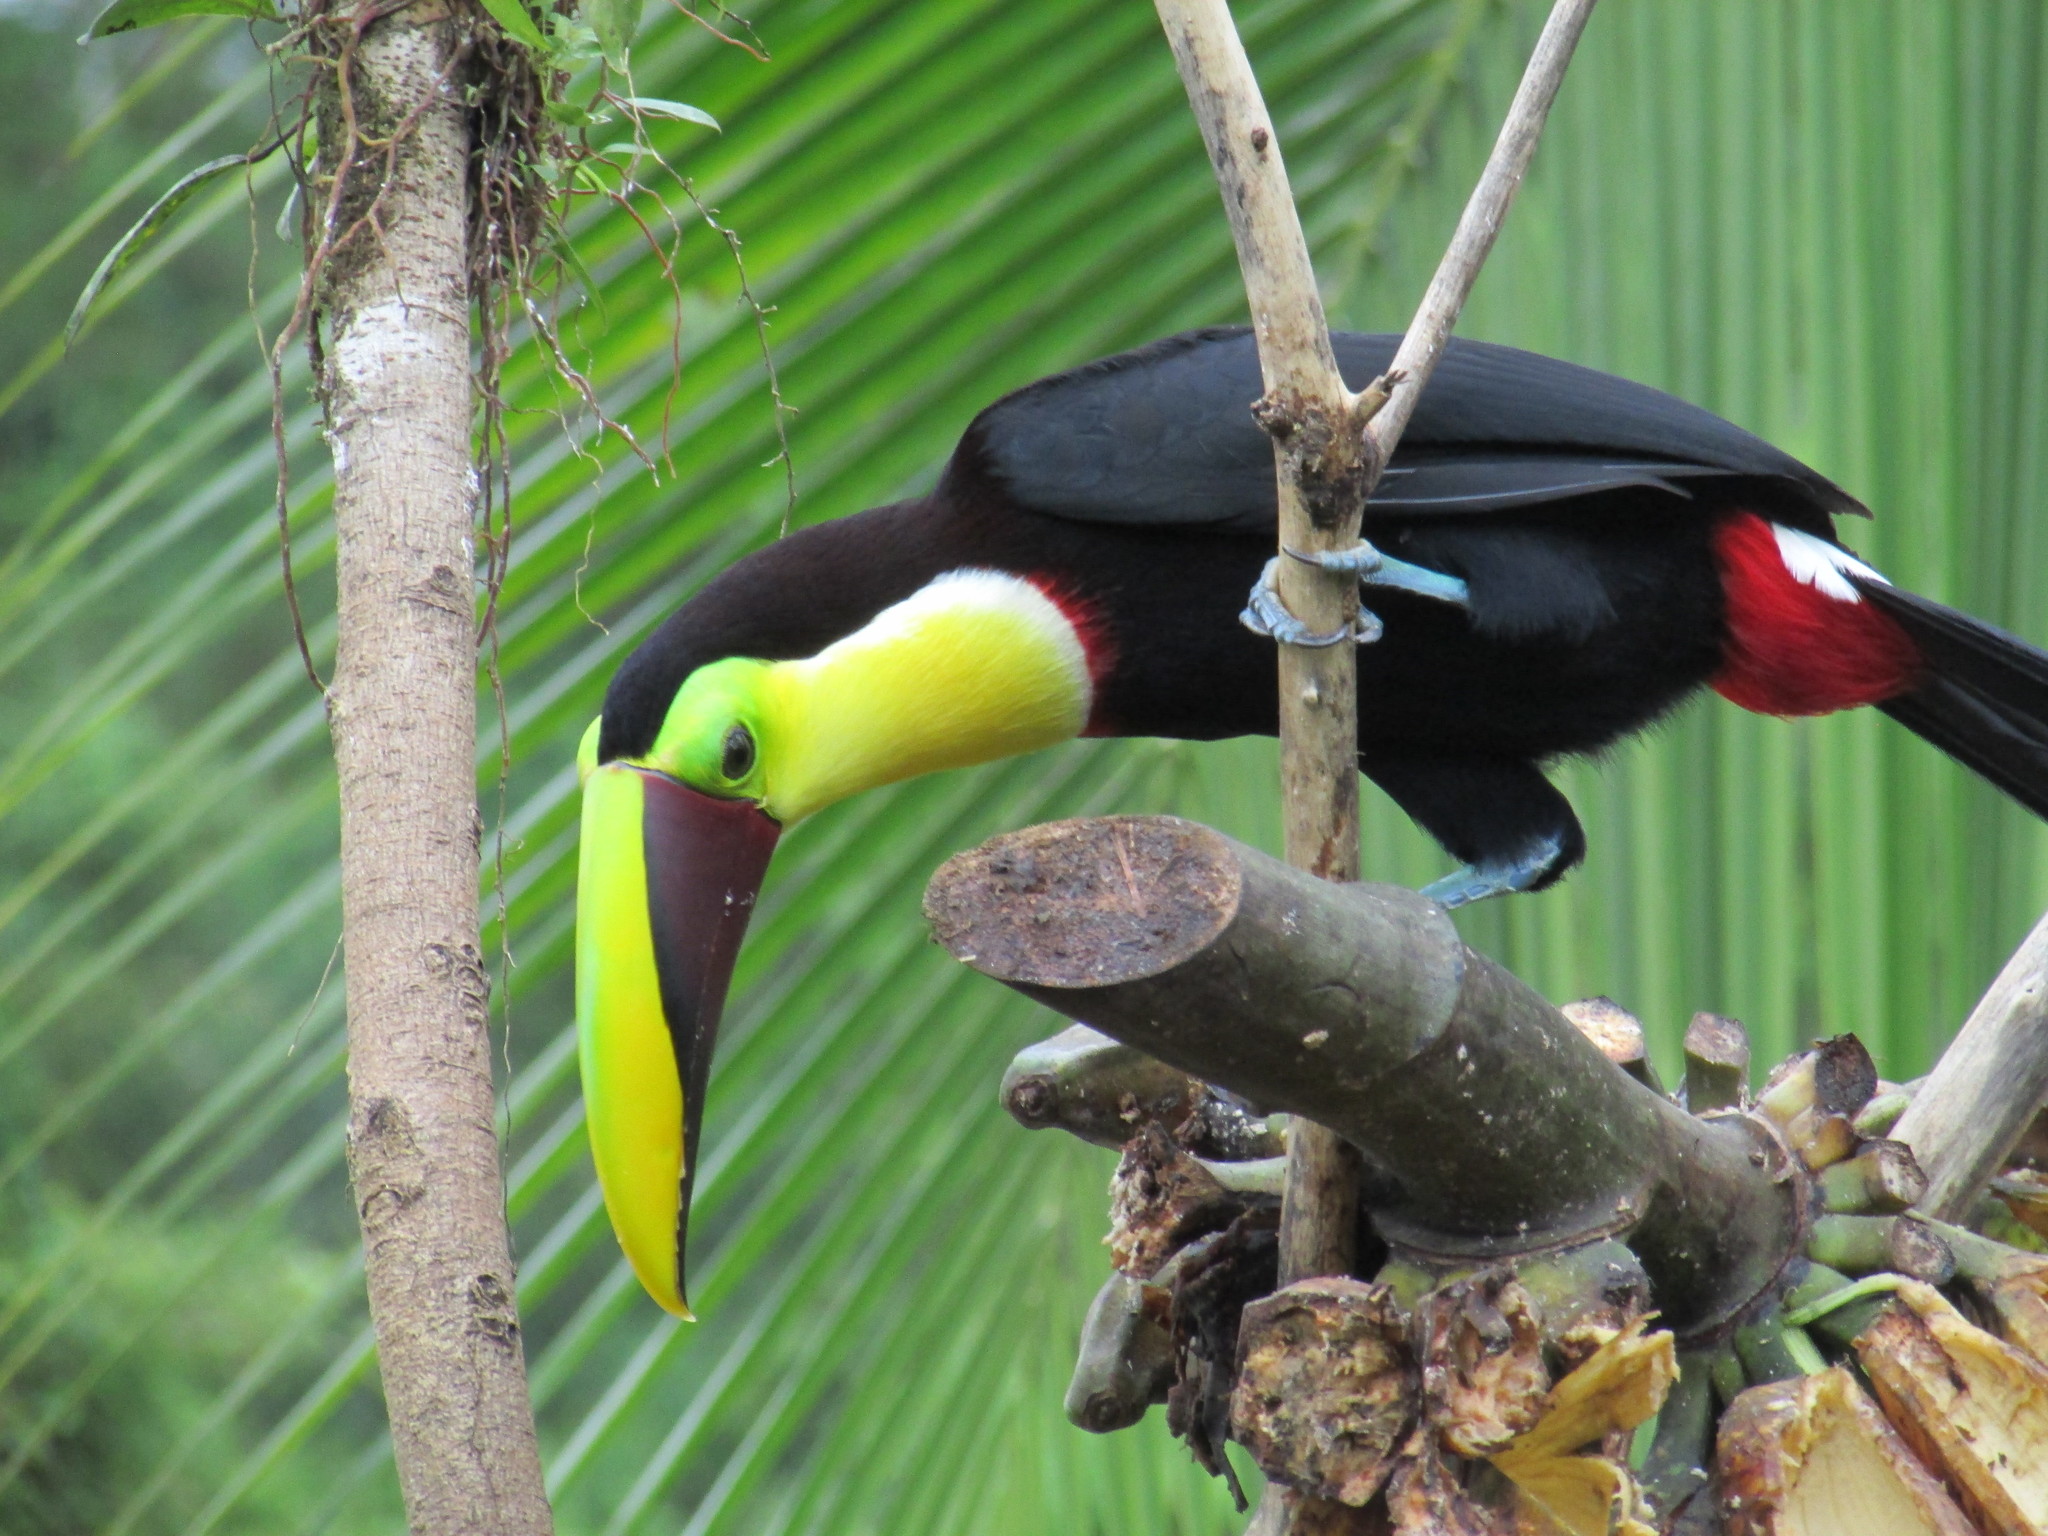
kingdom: Animalia
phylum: Chordata
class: Aves
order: Piciformes
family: Ramphastidae
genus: Ramphastos
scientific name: Ramphastos ambiguus
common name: Yellow-throated toucan
